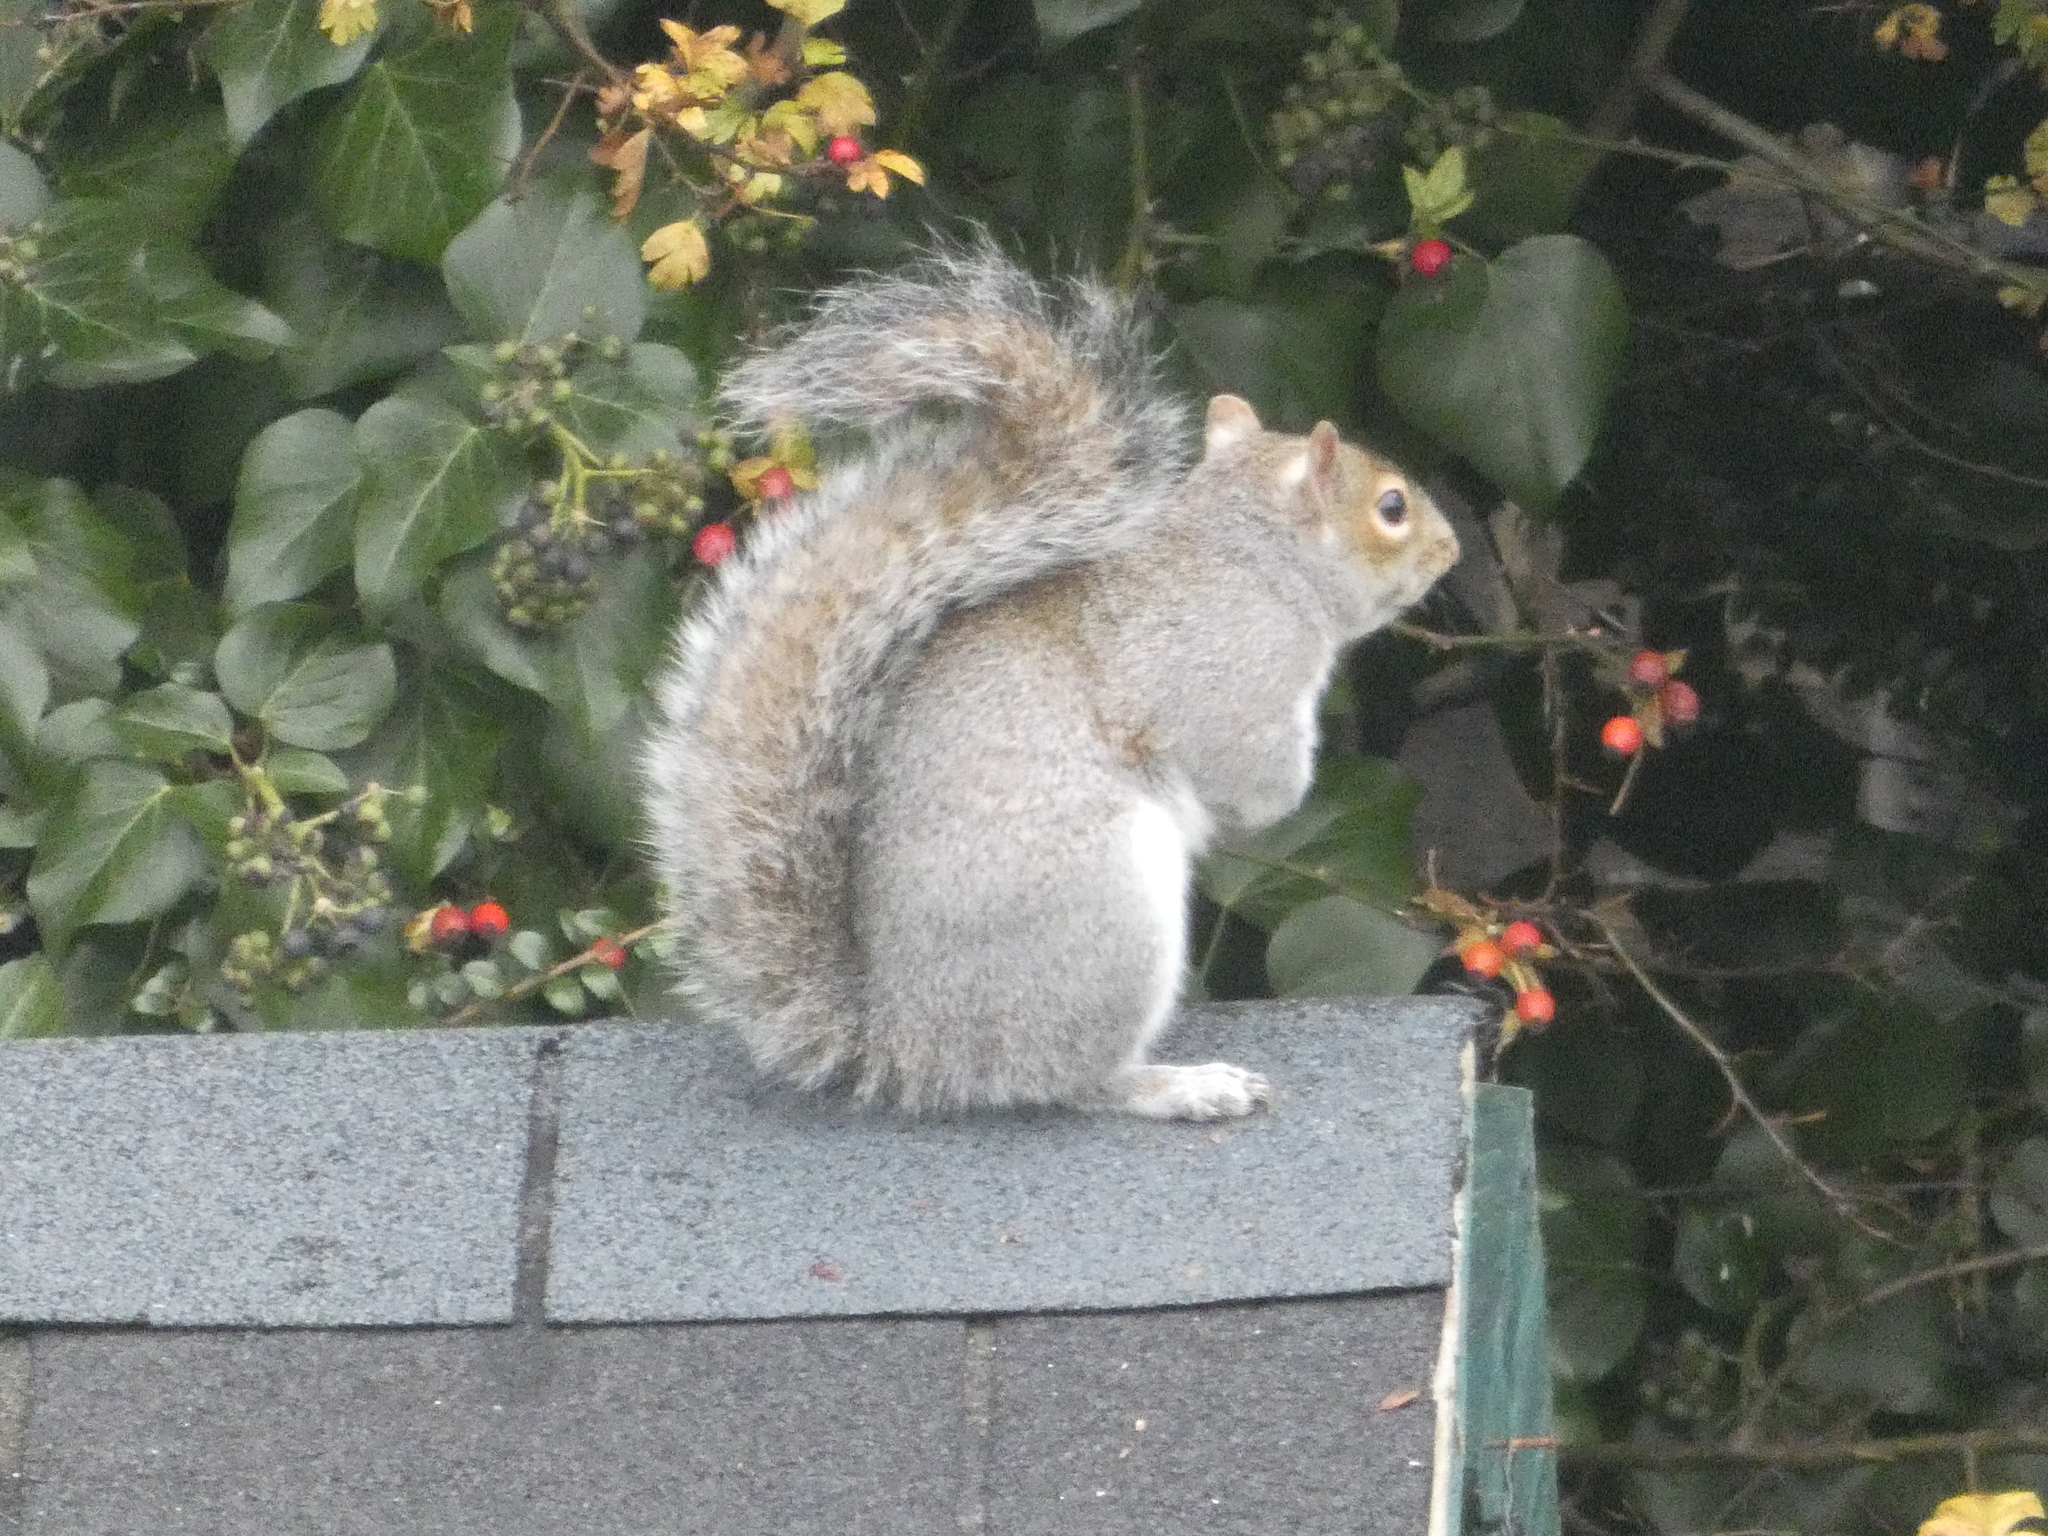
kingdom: Animalia
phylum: Chordata
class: Mammalia
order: Rodentia
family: Sciuridae
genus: Sciurus
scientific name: Sciurus carolinensis
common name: Eastern gray squirrel
